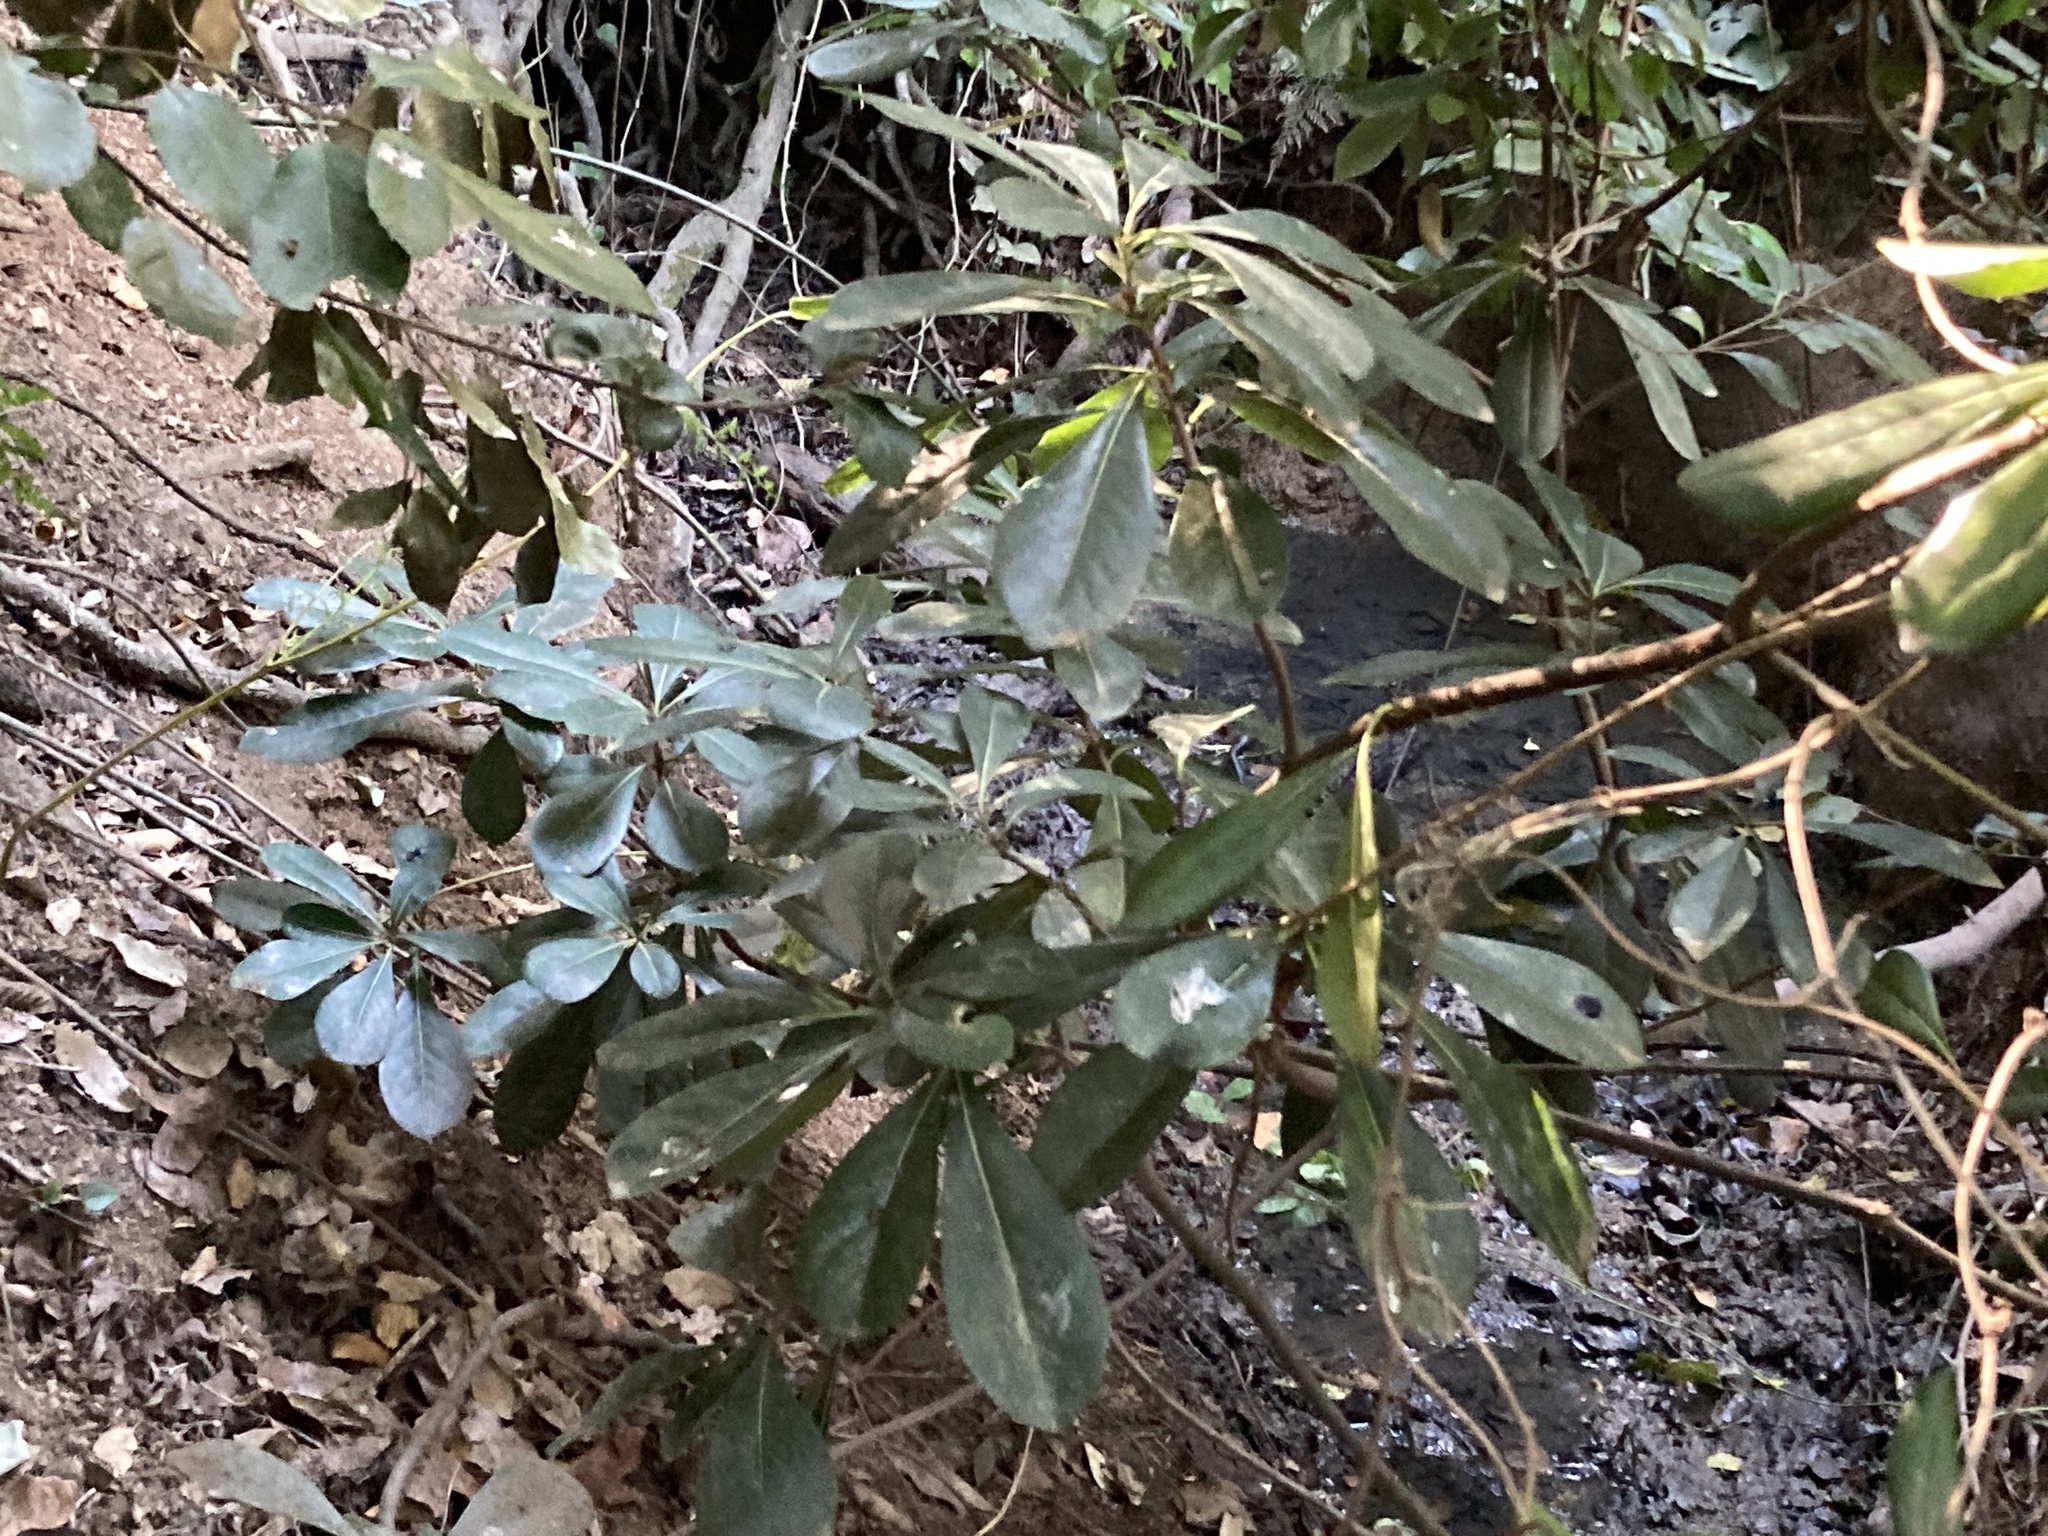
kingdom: Plantae
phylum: Tracheophyta
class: Magnoliopsida
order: Apiales
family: Pittosporaceae
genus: Pittosporum
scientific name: Pittosporum tobira
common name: Japanese cheesewood
